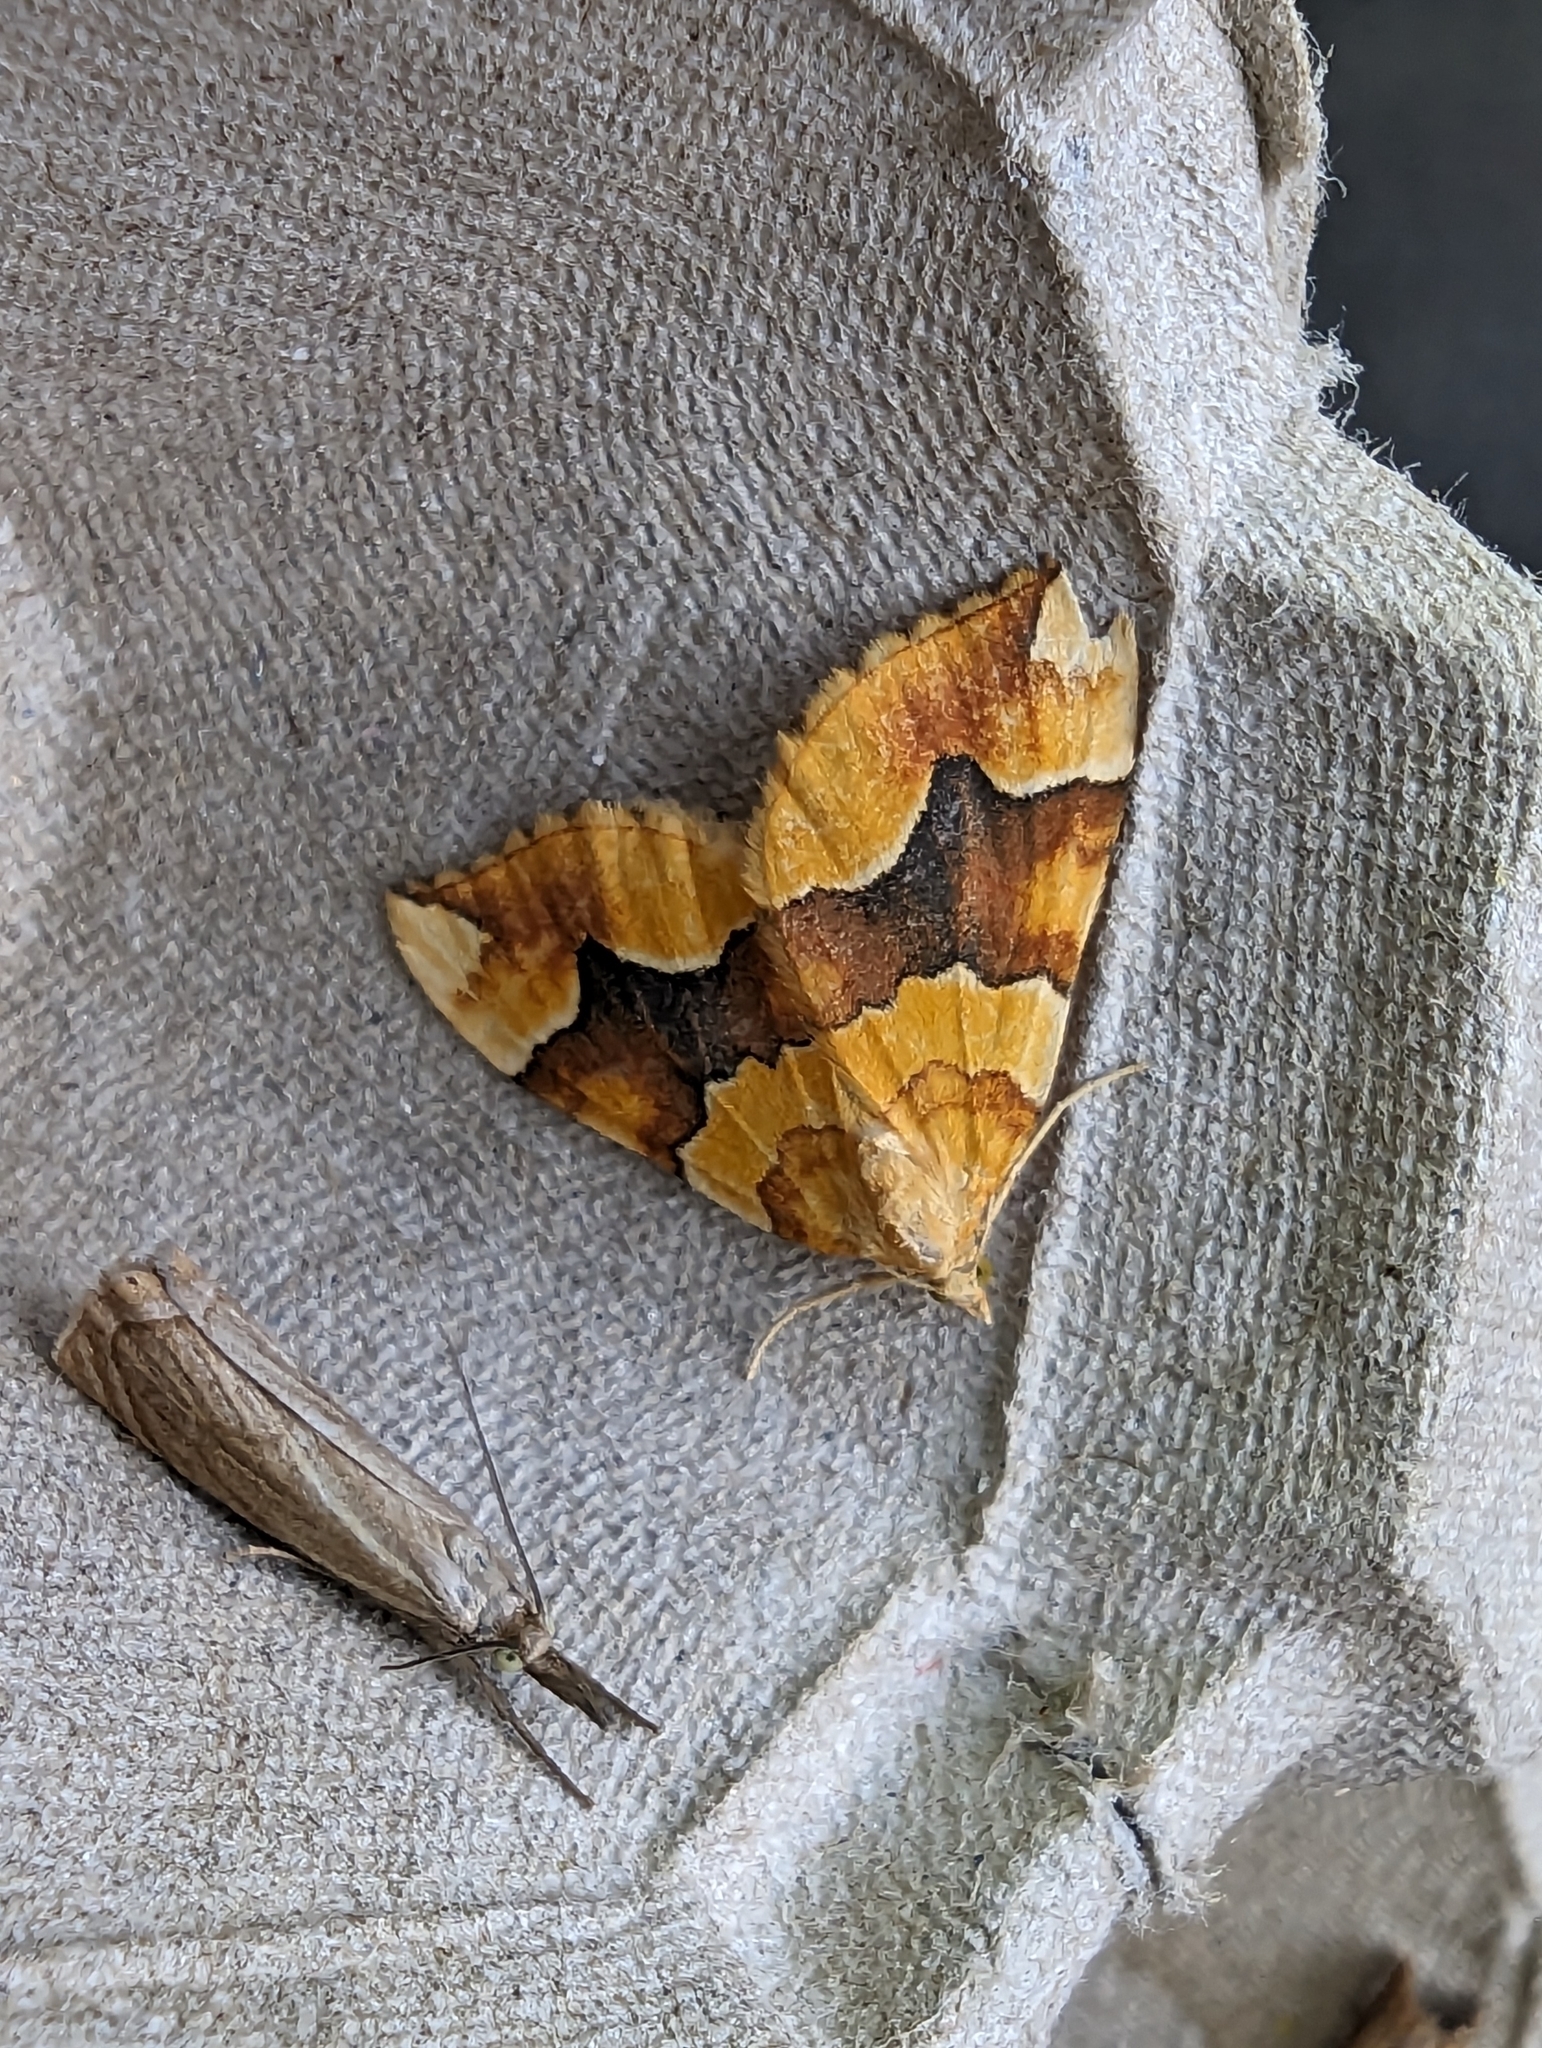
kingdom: Animalia
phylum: Arthropoda
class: Insecta
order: Lepidoptera
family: Geometridae
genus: Cidaria
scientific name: Cidaria fulvata
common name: Barred yellow
